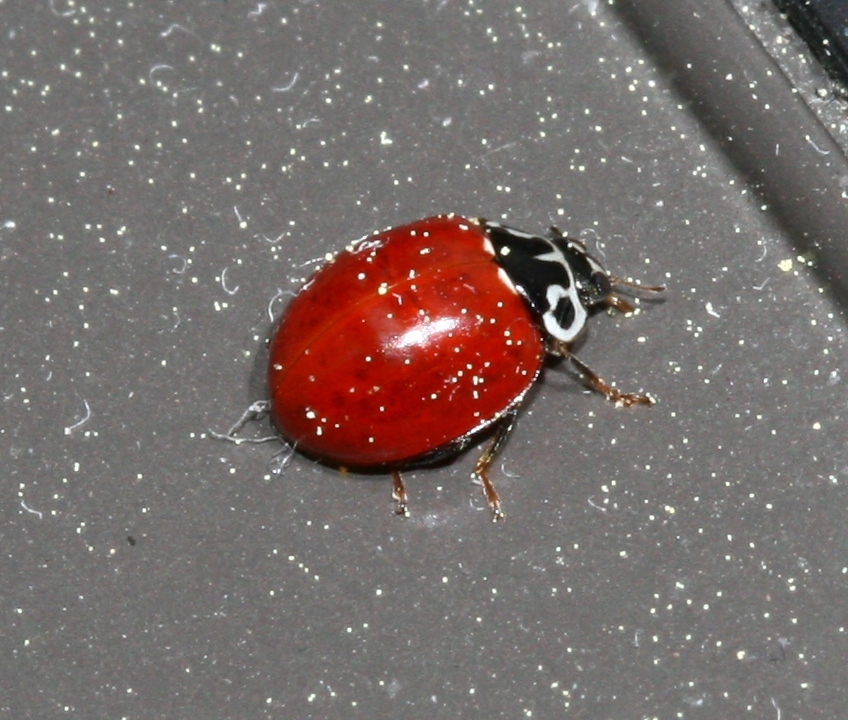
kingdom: Animalia
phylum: Arthropoda
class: Insecta
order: Coleoptera
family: Coccinellidae
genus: Cycloneda
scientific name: Cycloneda polita
